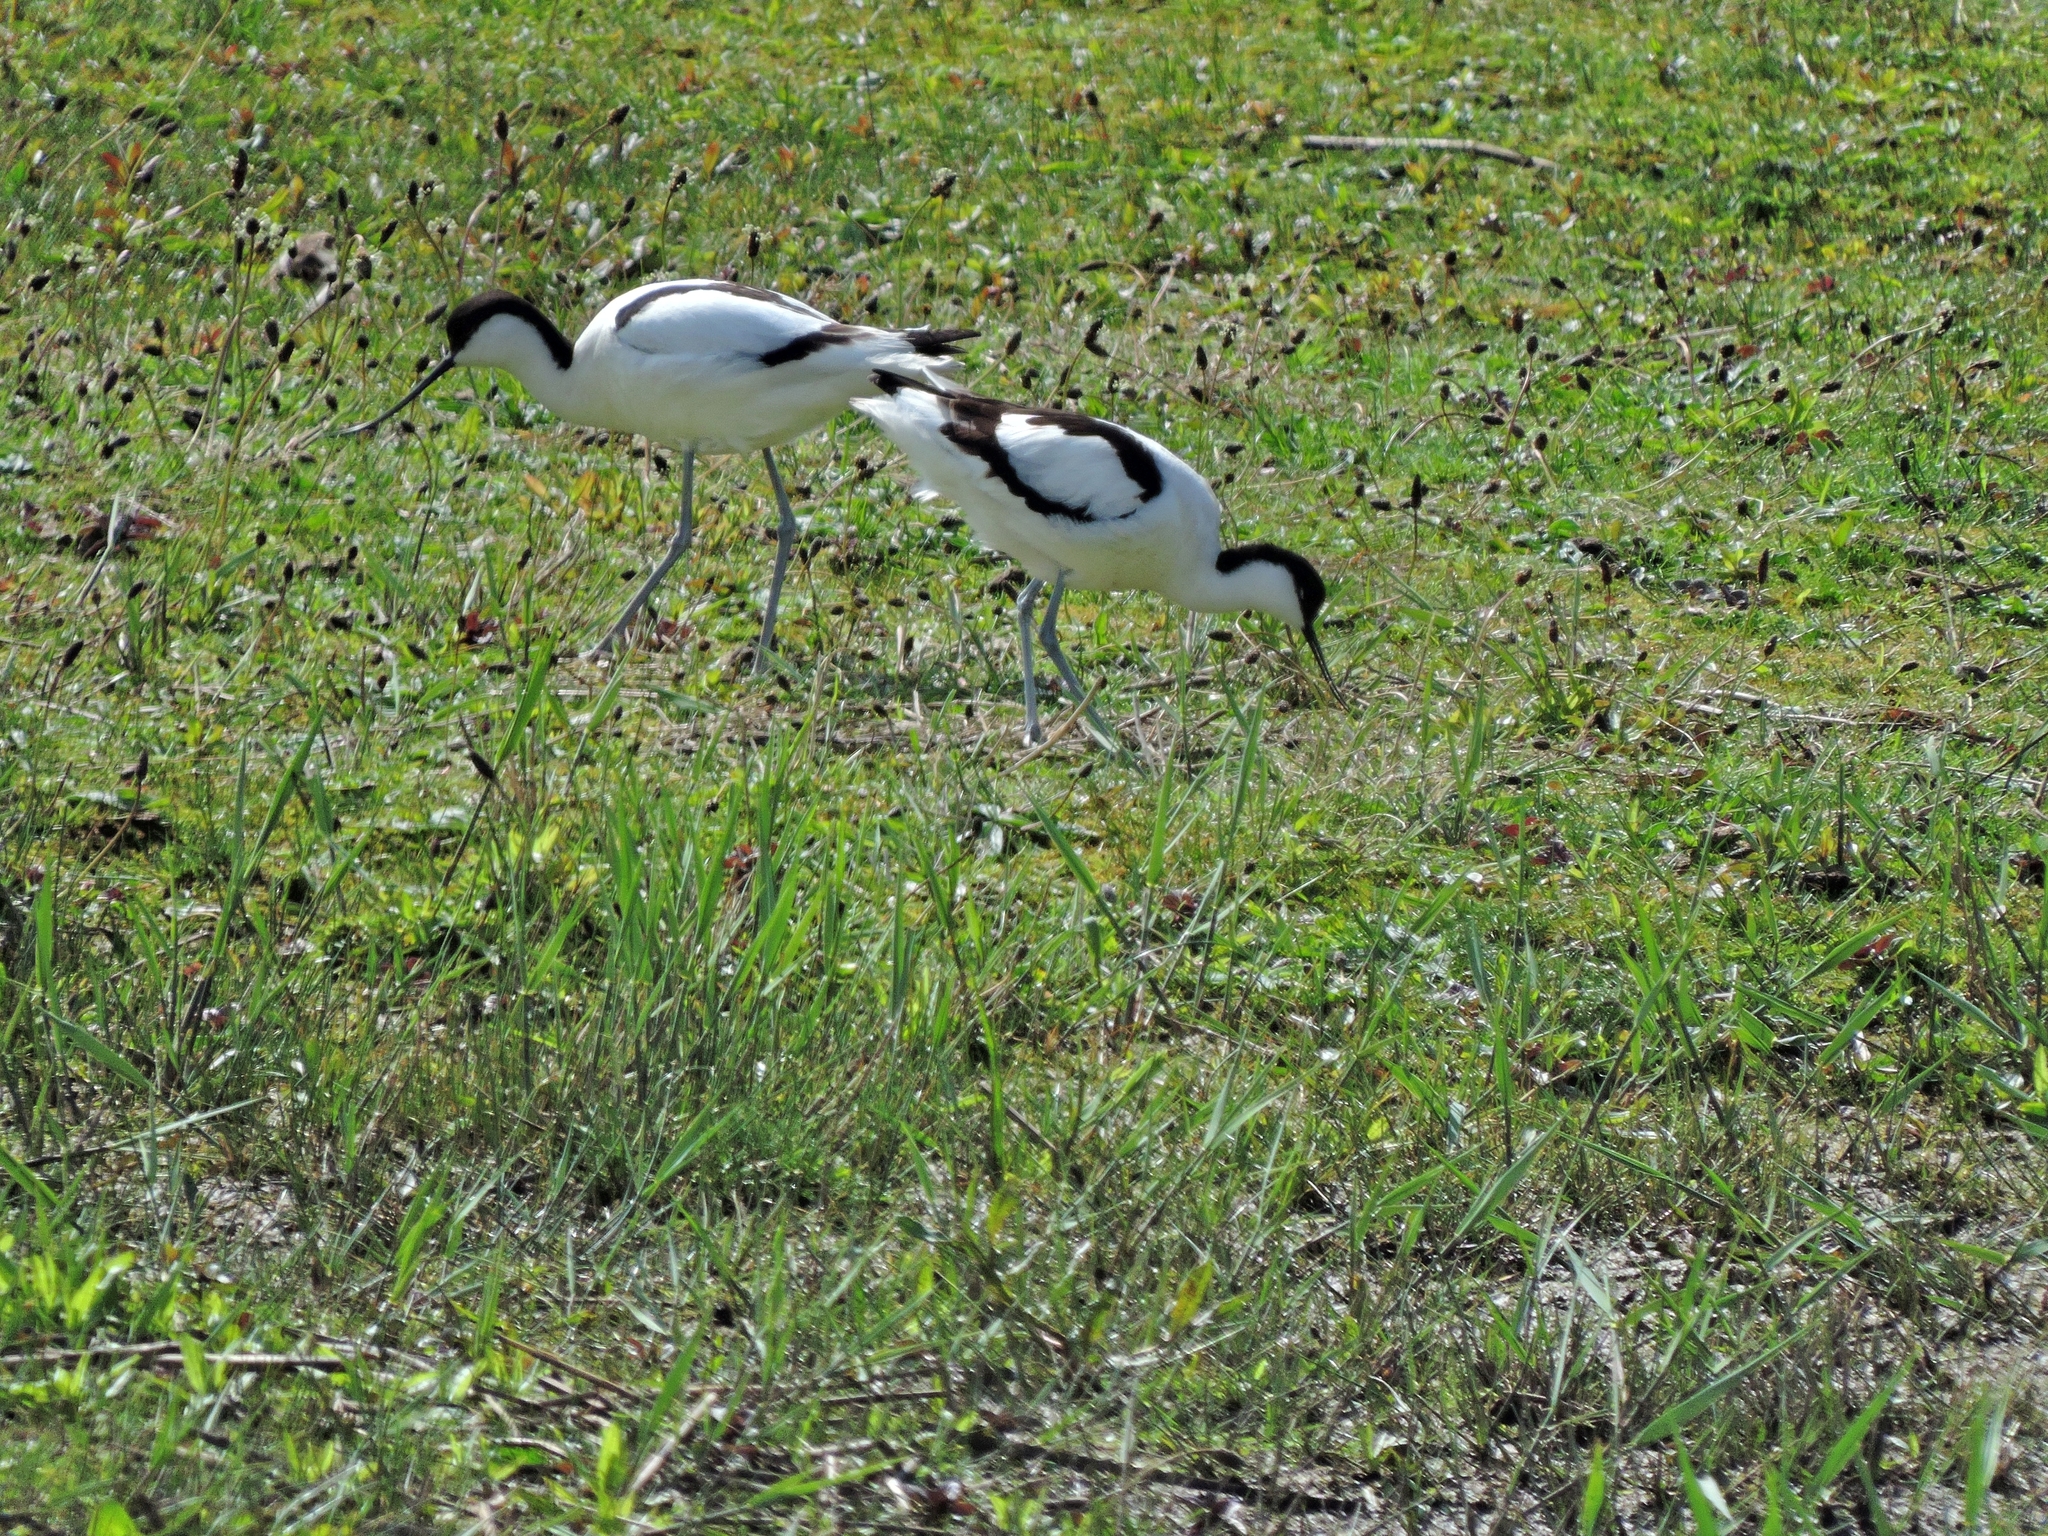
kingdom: Animalia
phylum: Chordata
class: Aves
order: Charadriiformes
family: Recurvirostridae
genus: Recurvirostra
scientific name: Recurvirostra avosetta
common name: Pied avocet
